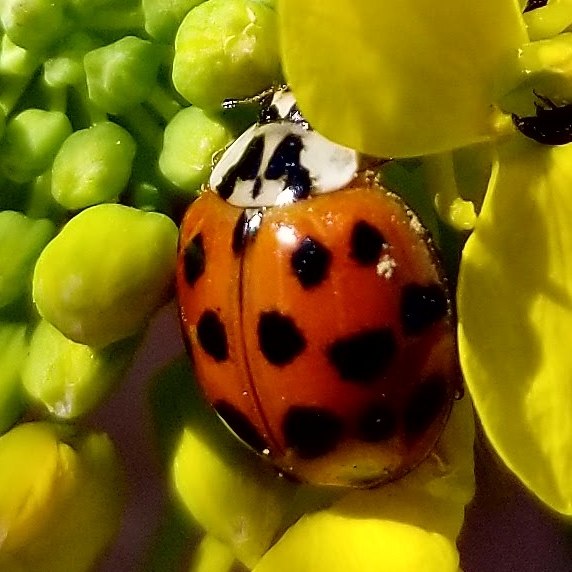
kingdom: Animalia
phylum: Arthropoda
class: Insecta
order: Coleoptera
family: Coccinellidae
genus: Harmonia
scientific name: Harmonia axyridis
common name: Harlequin ladybird
